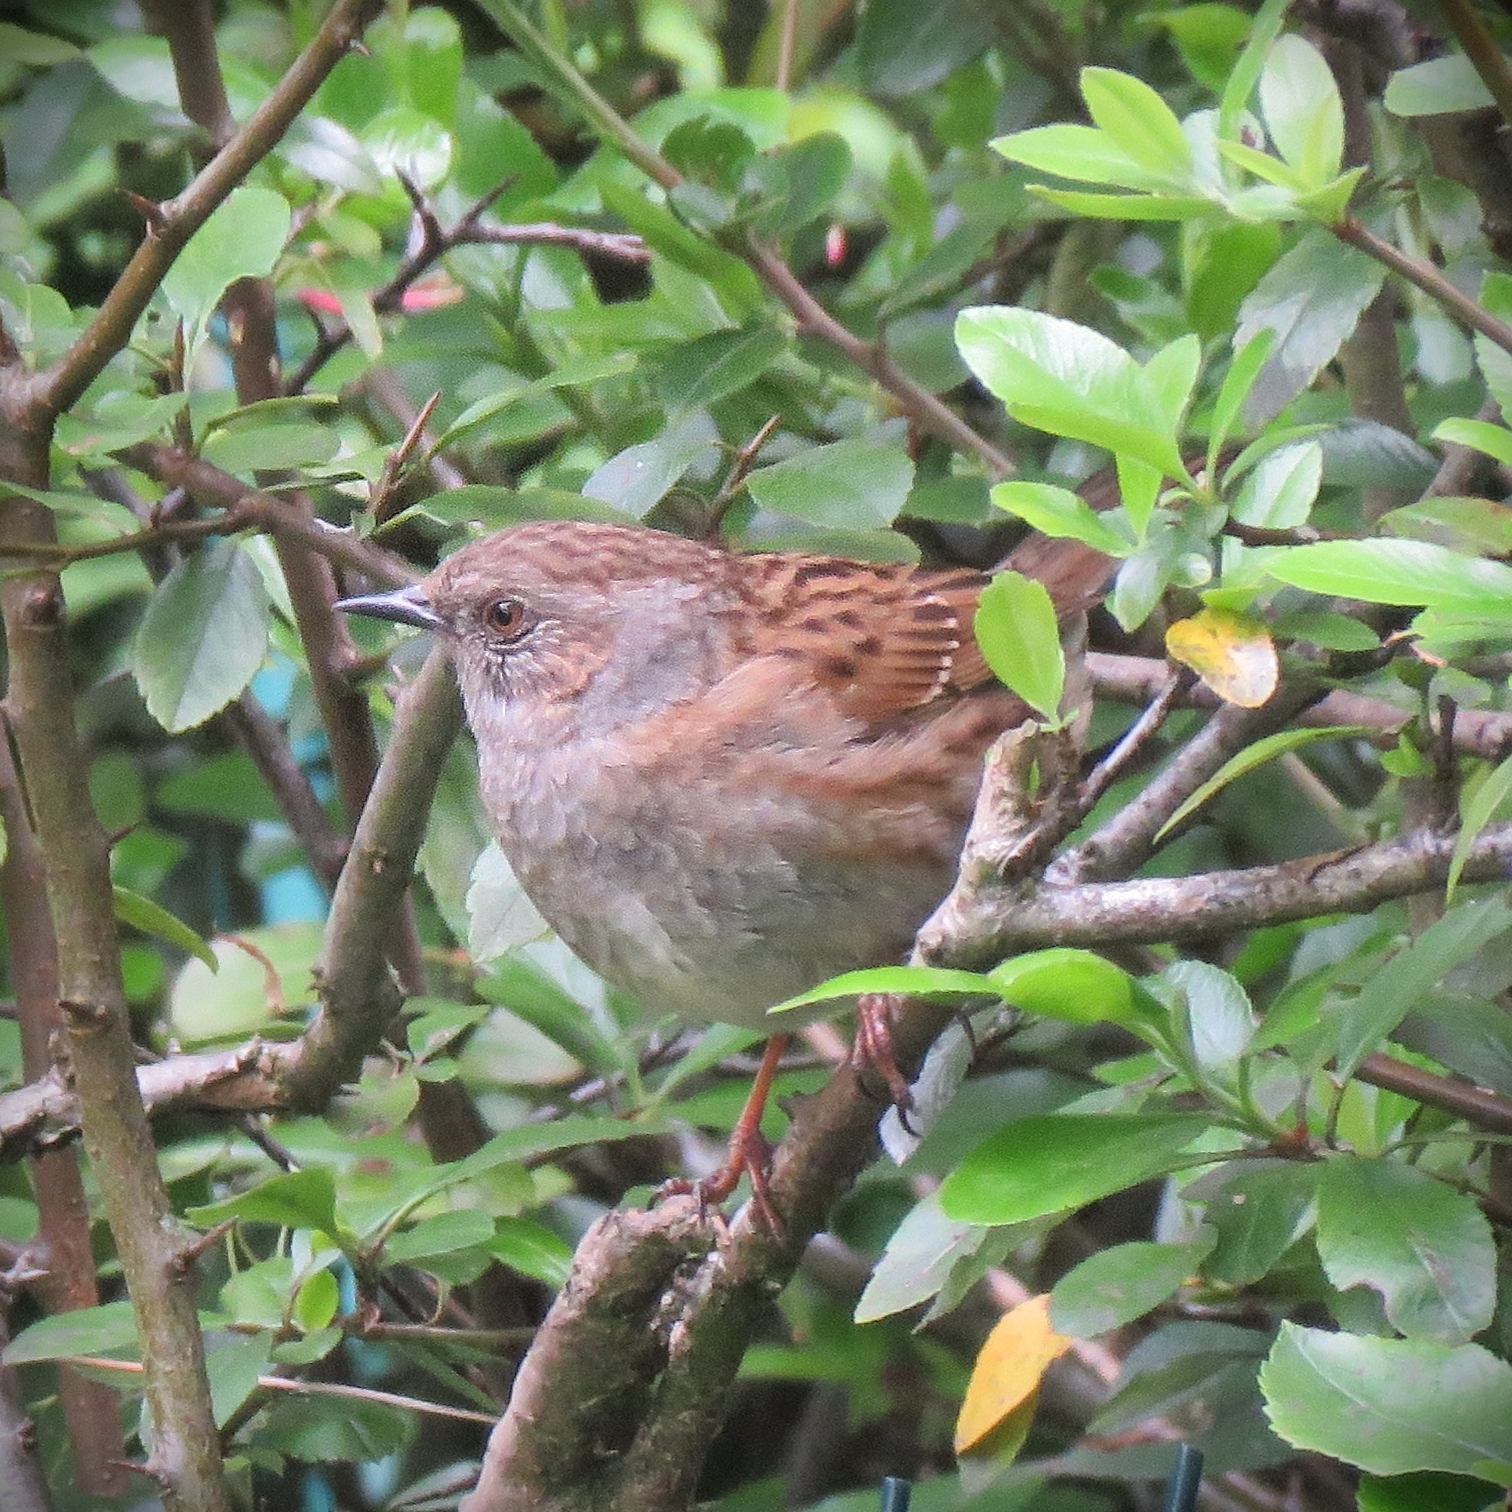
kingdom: Animalia
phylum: Chordata
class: Aves
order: Passeriformes
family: Prunellidae
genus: Prunella
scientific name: Prunella modularis
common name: Dunnock
